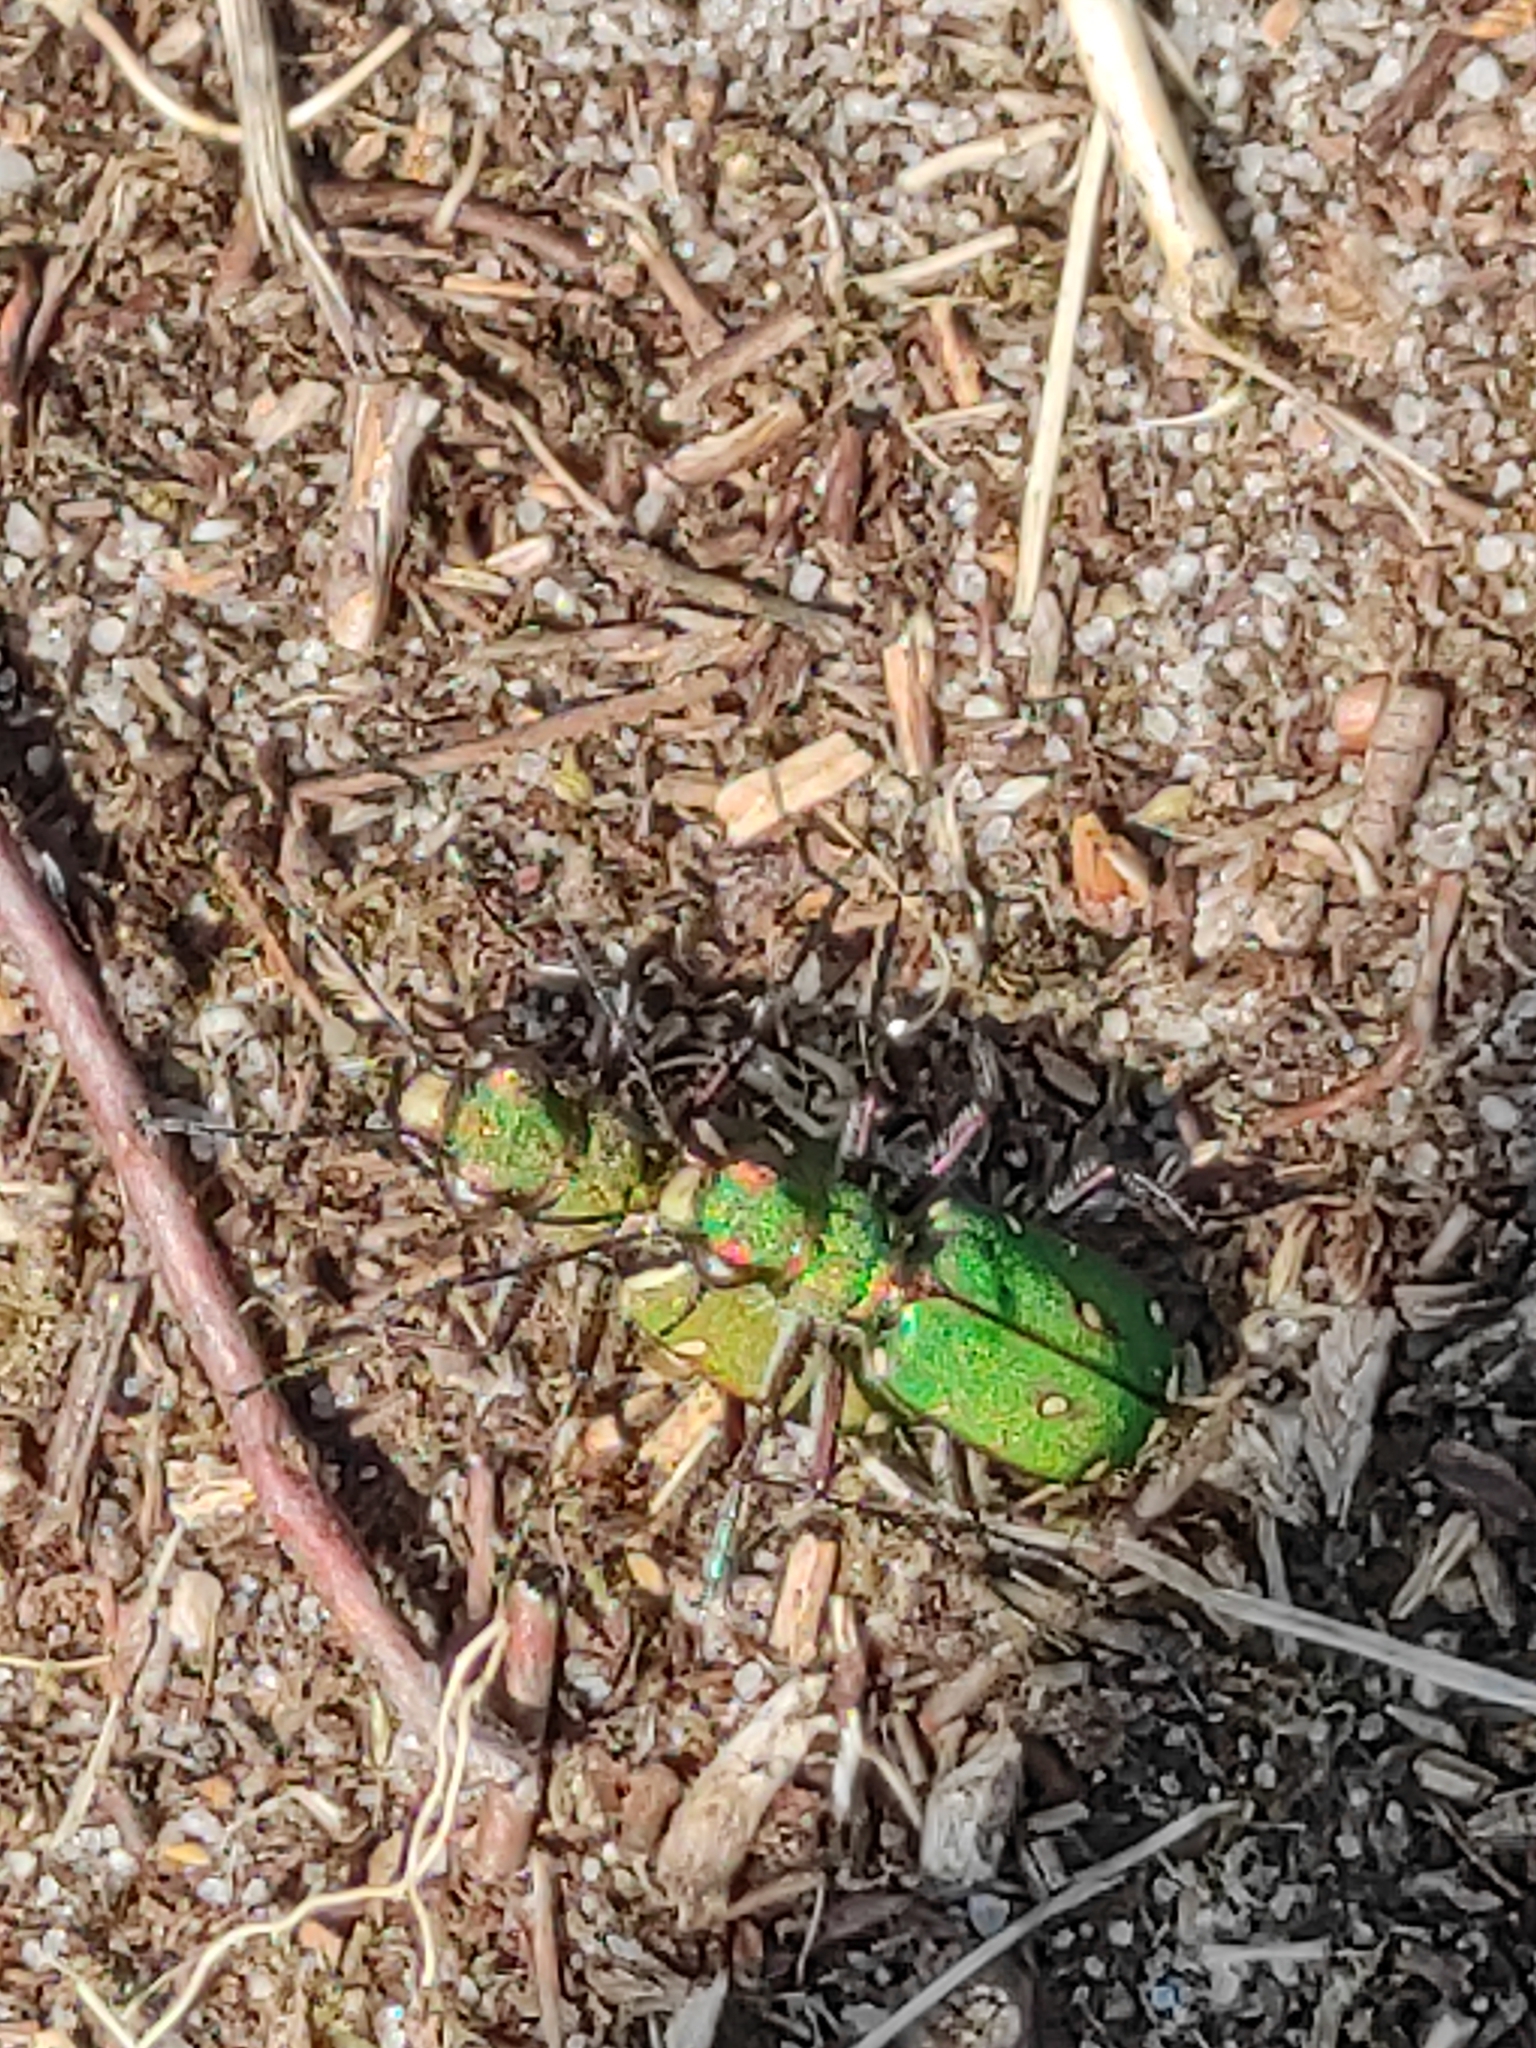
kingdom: Animalia
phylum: Arthropoda
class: Insecta
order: Coleoptera
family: Carabidae
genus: Cicindela
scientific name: Cicindela campestris
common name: Common tiger beetle
